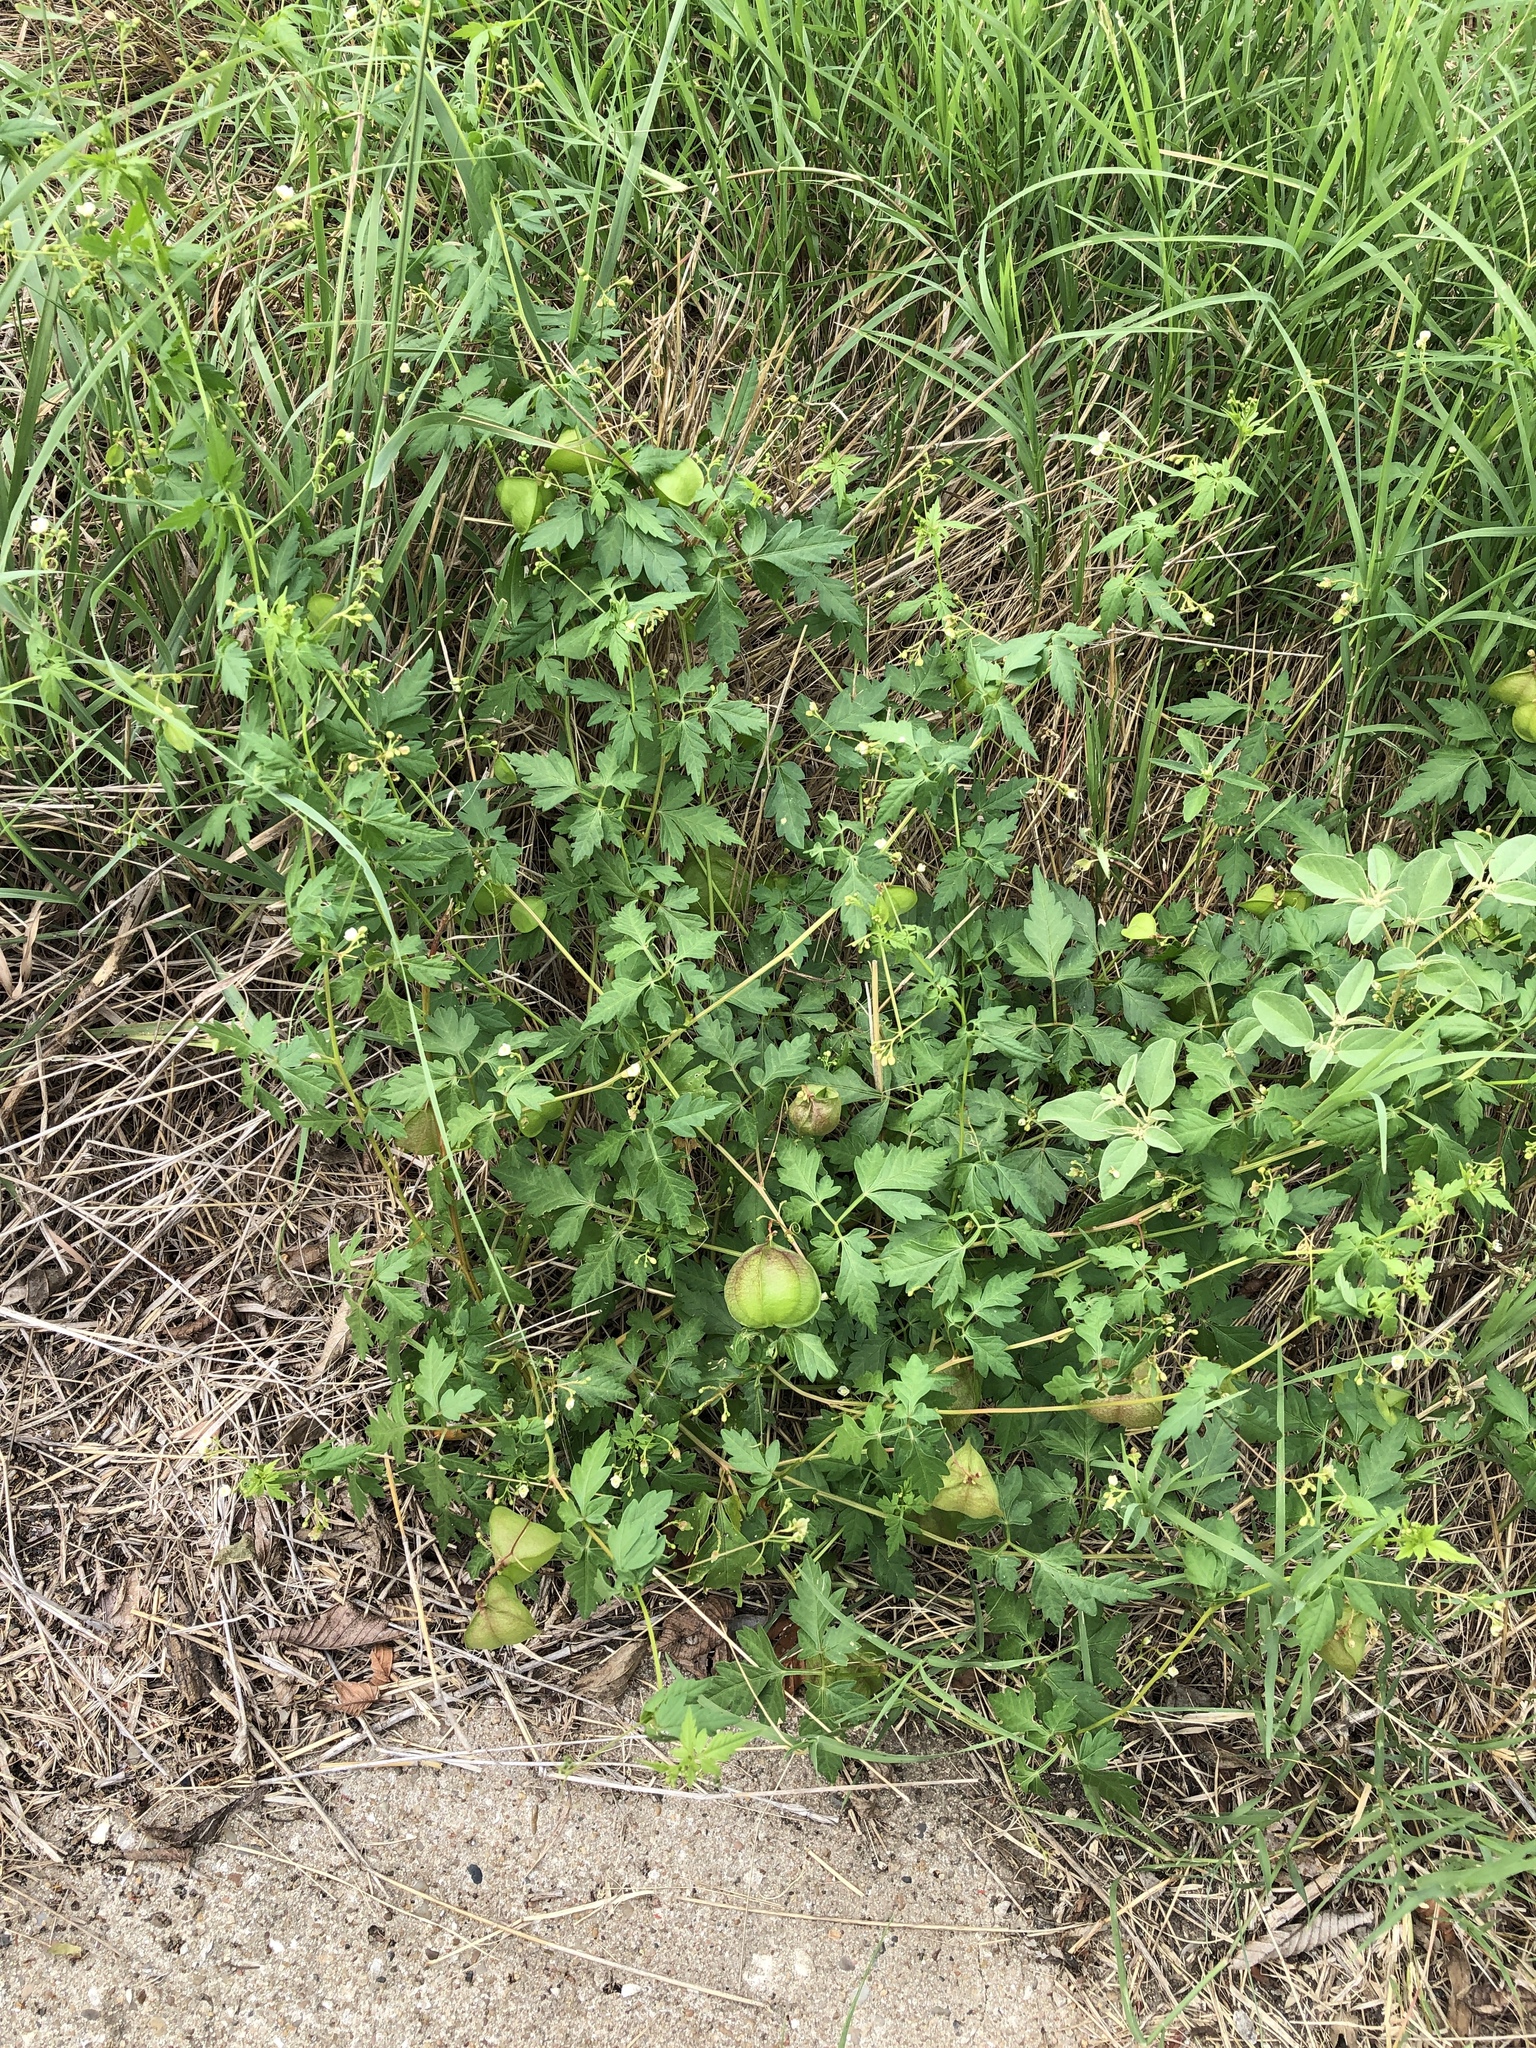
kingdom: Plantae
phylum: Tracheophyta
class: Magnoliopsida
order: Sapindales
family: Sapindaceae
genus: Cardiospermum
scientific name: Cardiospermum halicacabum
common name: Balloon vine
